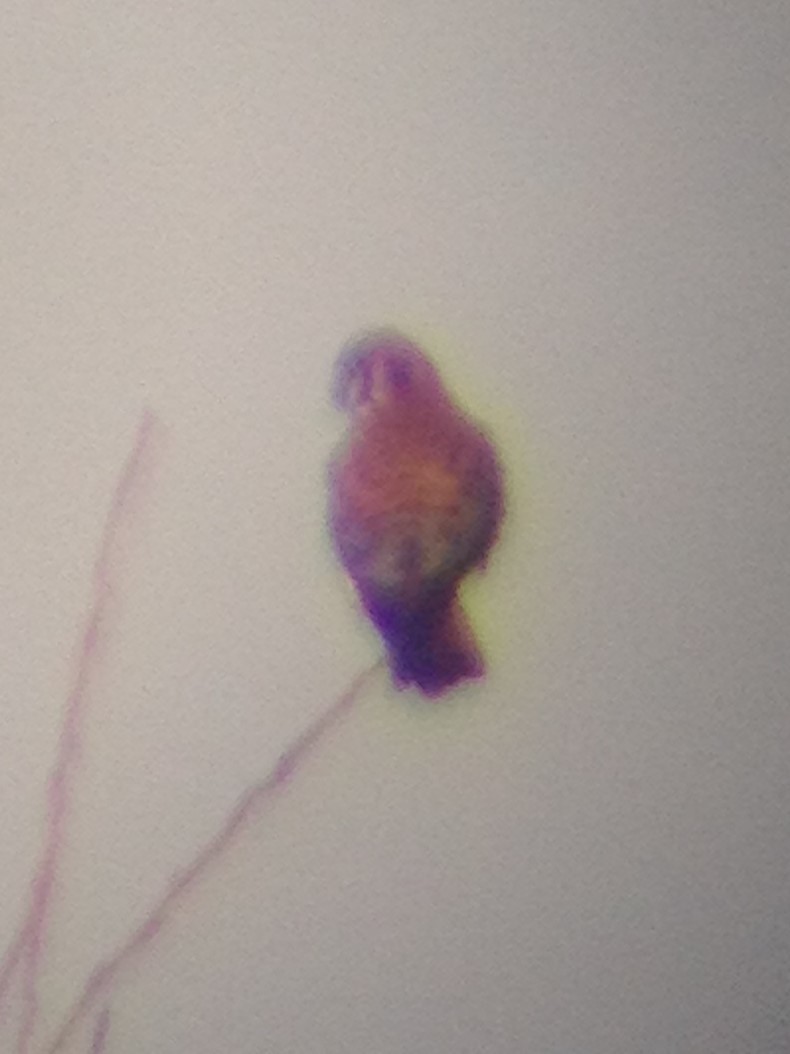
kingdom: Animalia
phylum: Chordata
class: Aves
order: Falconiformes
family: Falconidae
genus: Falco
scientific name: Falco sparverius
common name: American kestrel
